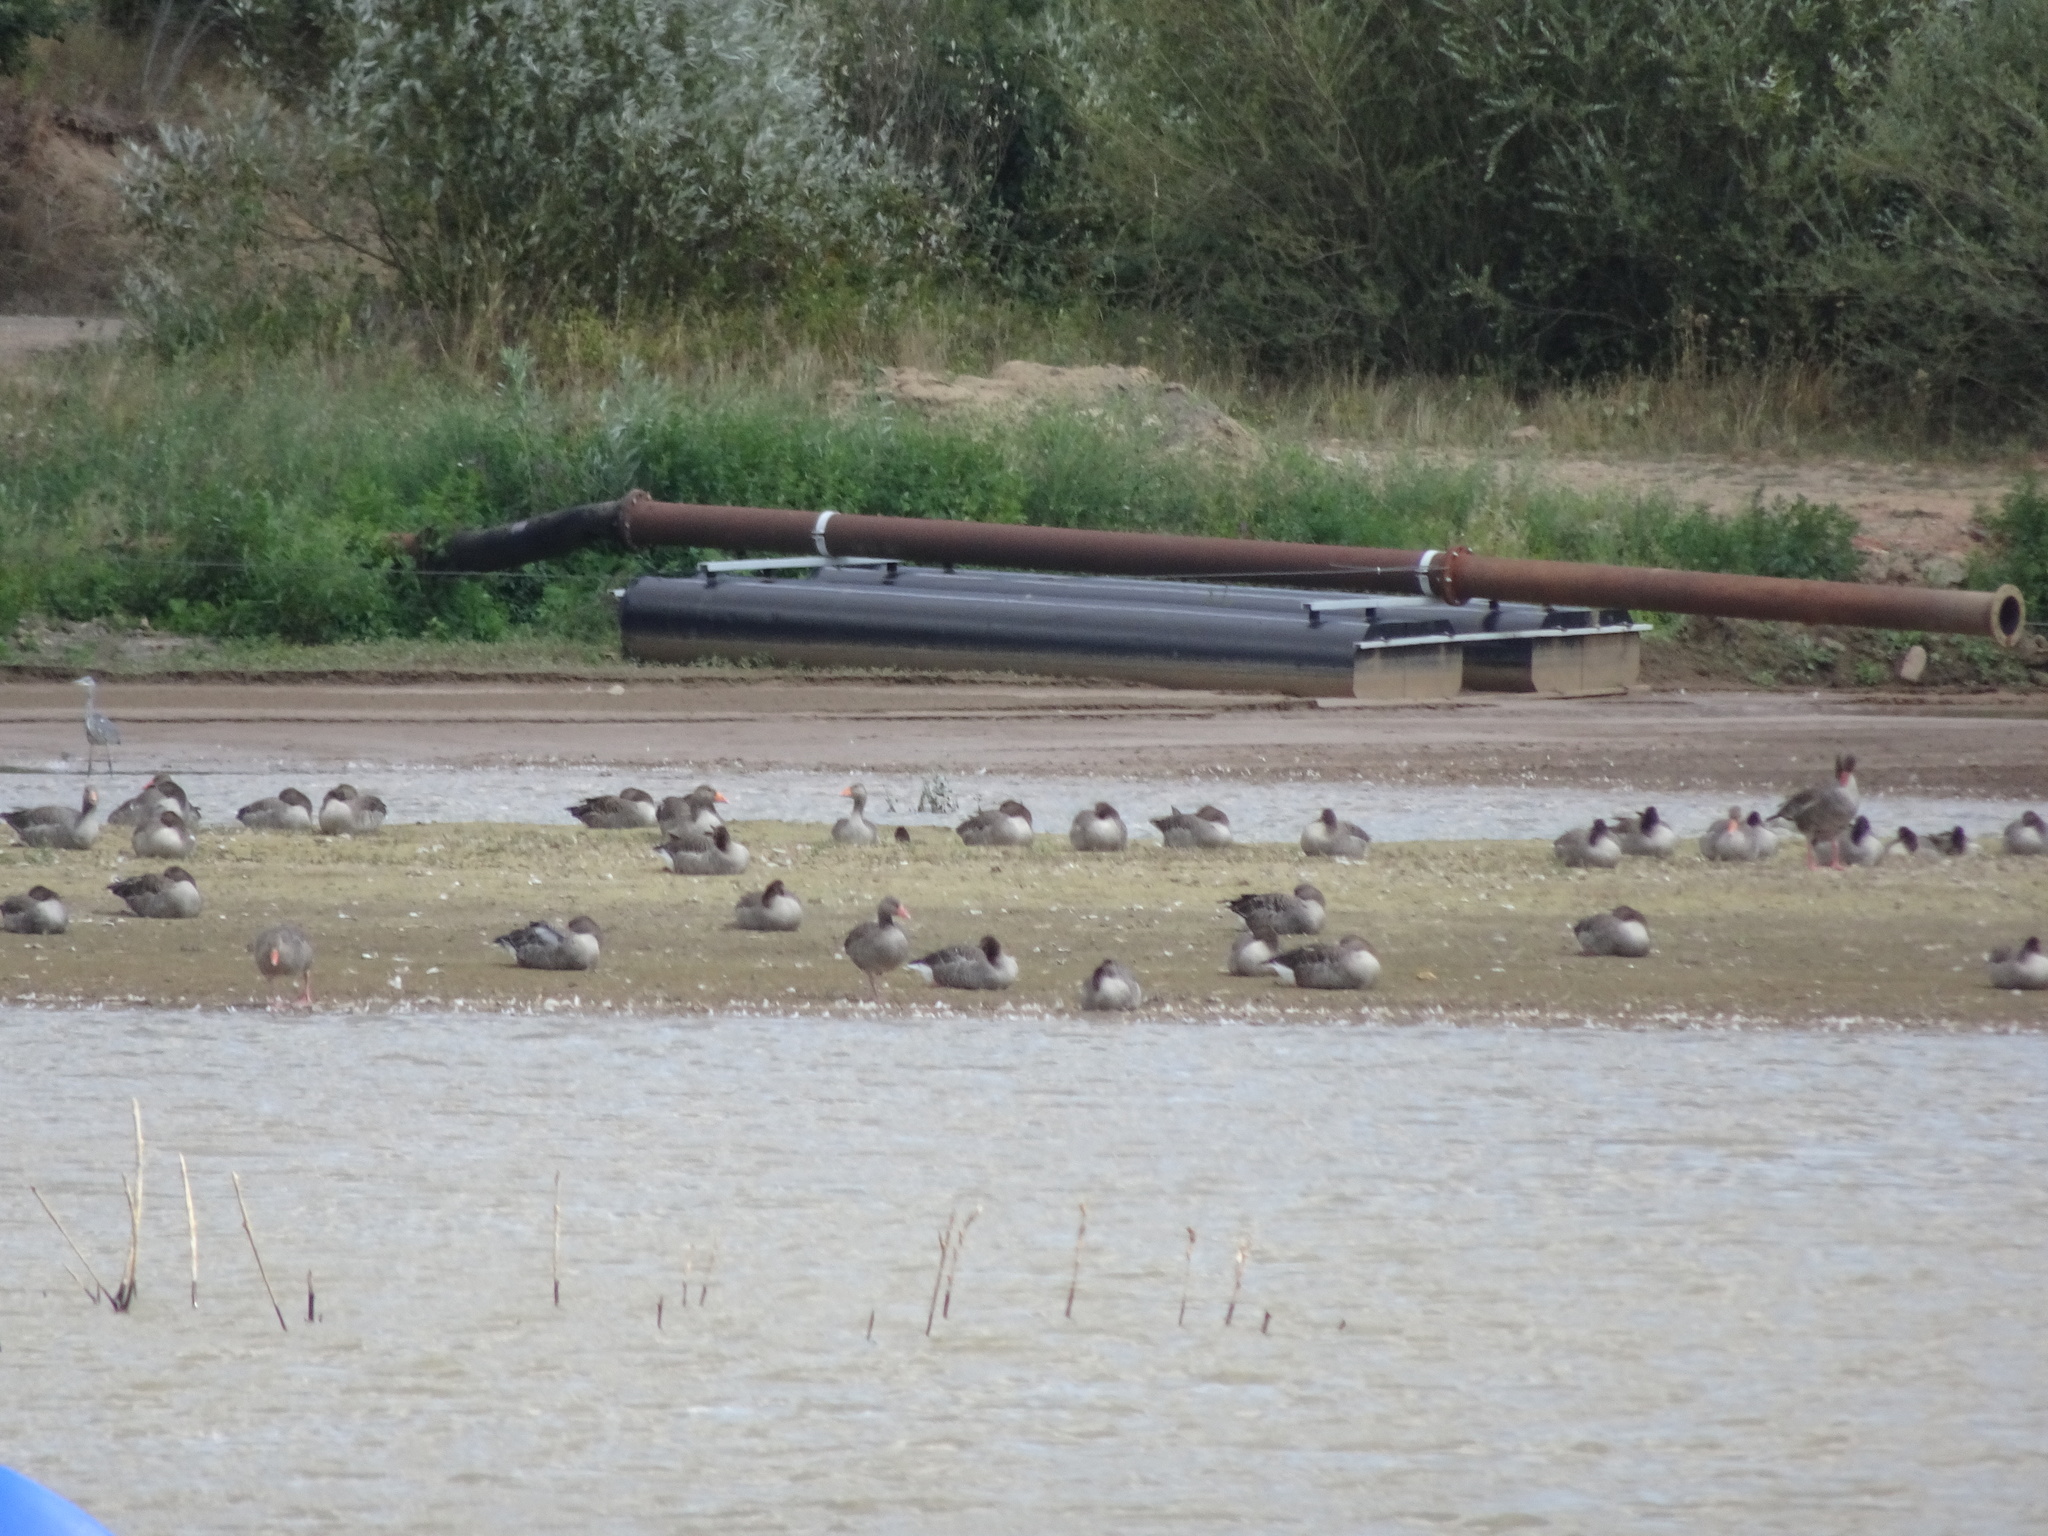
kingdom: Animalia
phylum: Chordata
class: Aves
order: Anseriformes
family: Anatidae
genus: Anser
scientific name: Anser anser
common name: Greylag goose
